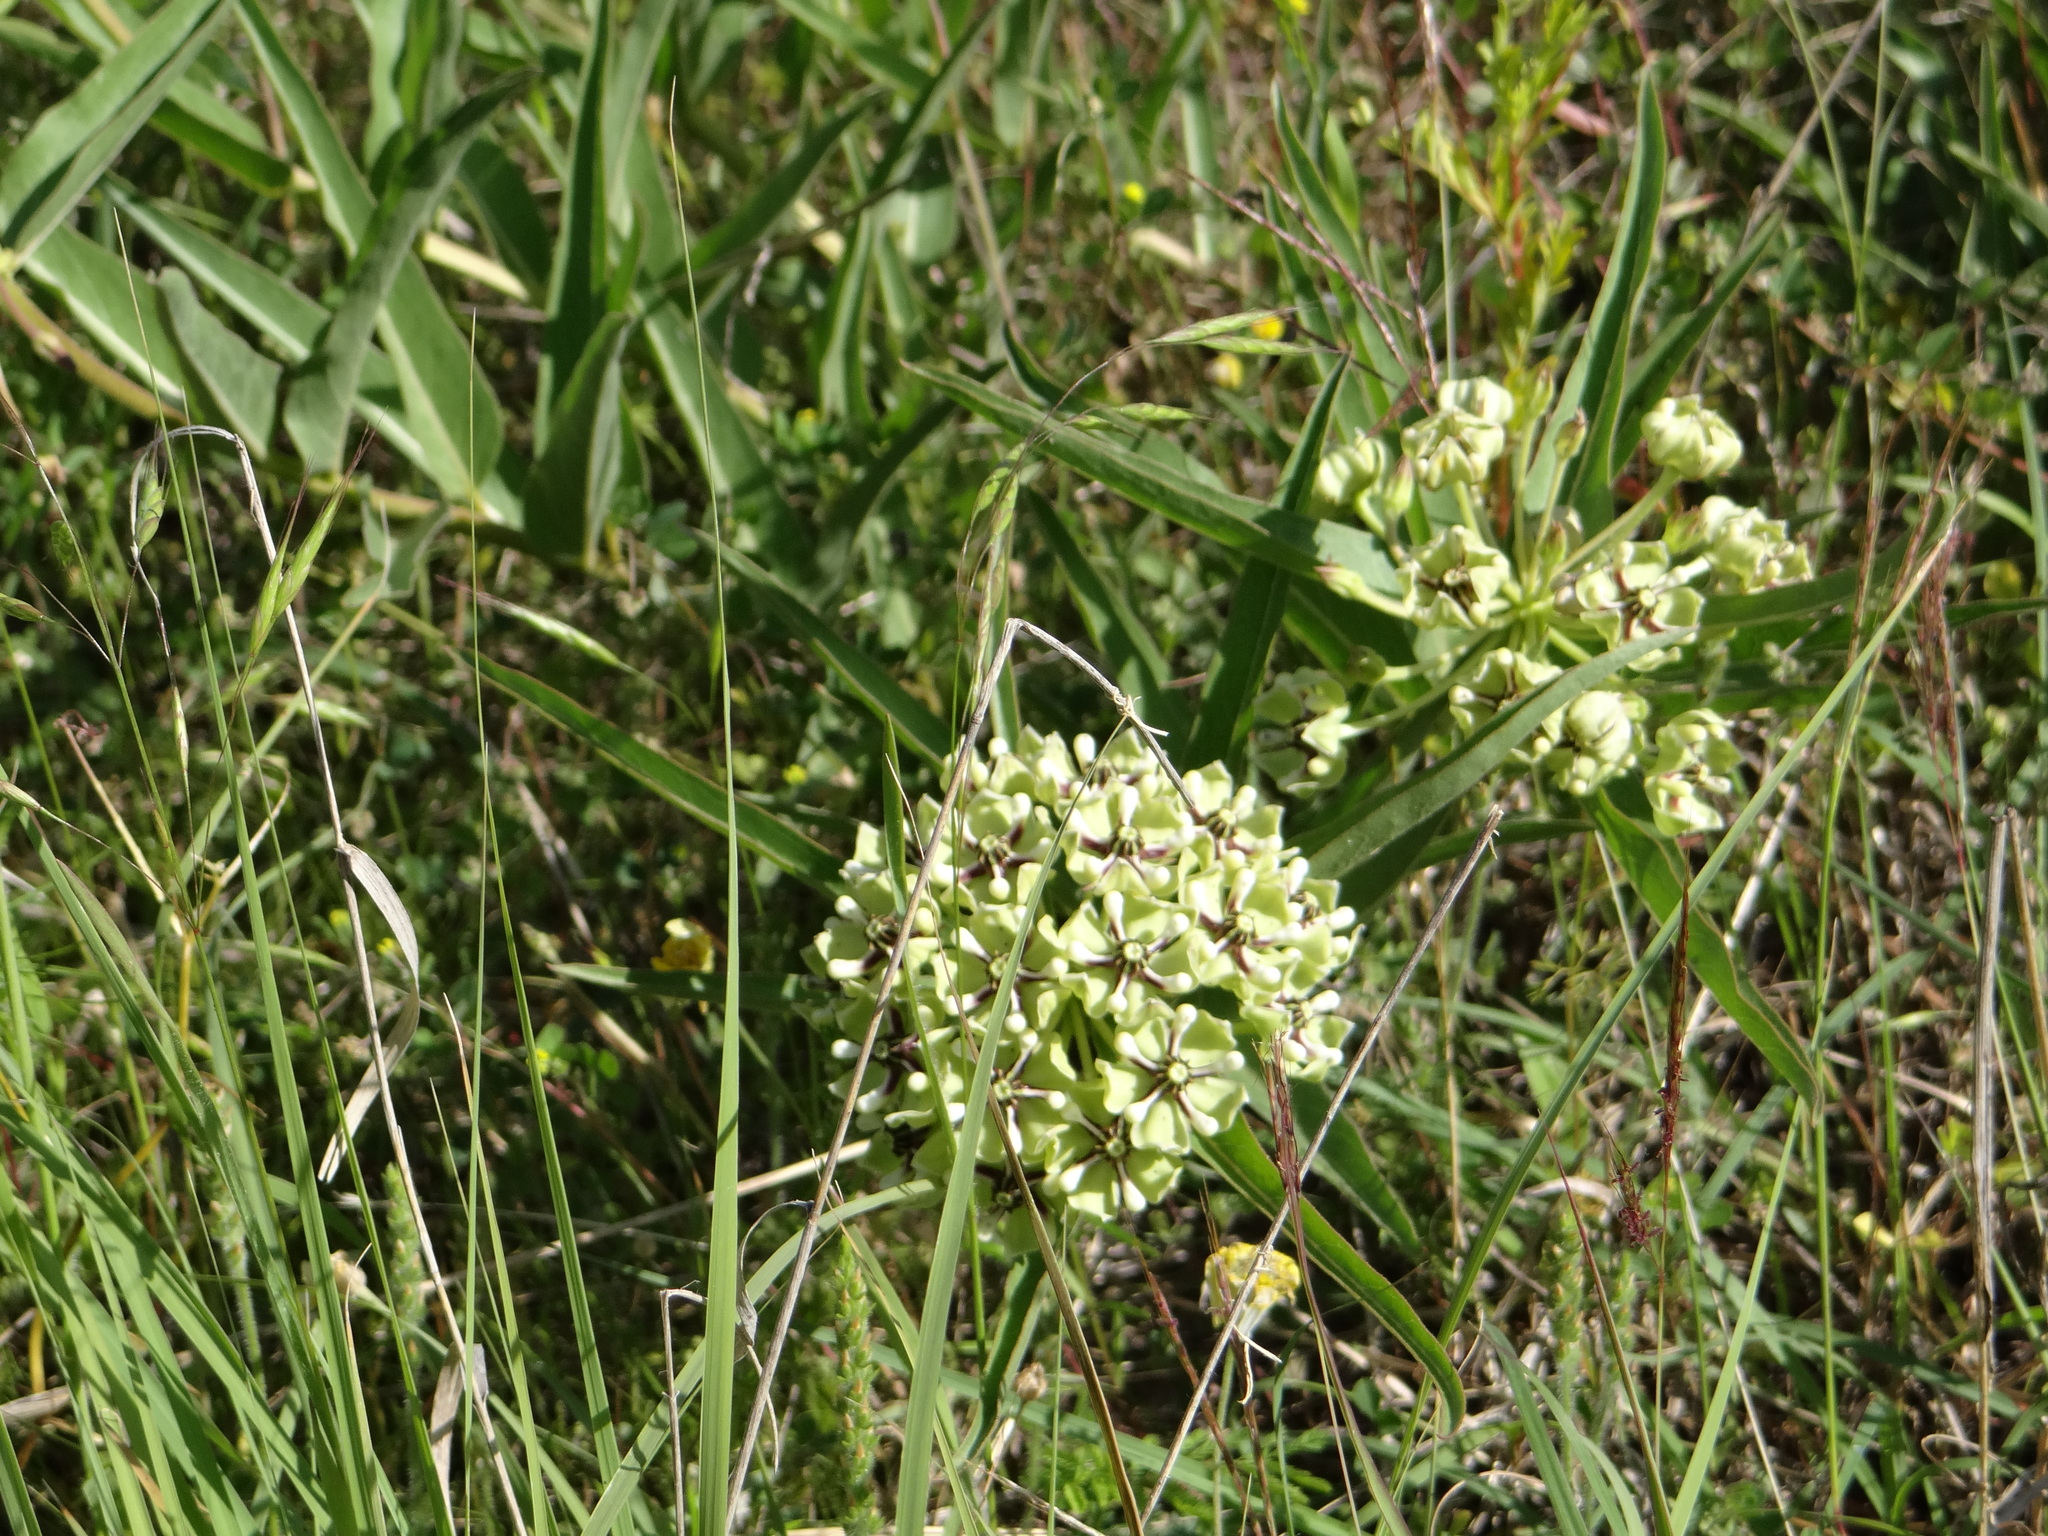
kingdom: Plantae
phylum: Tracheophyta
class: Magnoliopsida
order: Gentianales
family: Apocynaceae
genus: Asclepias
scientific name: Asclepias asperula
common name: Antelope horns
